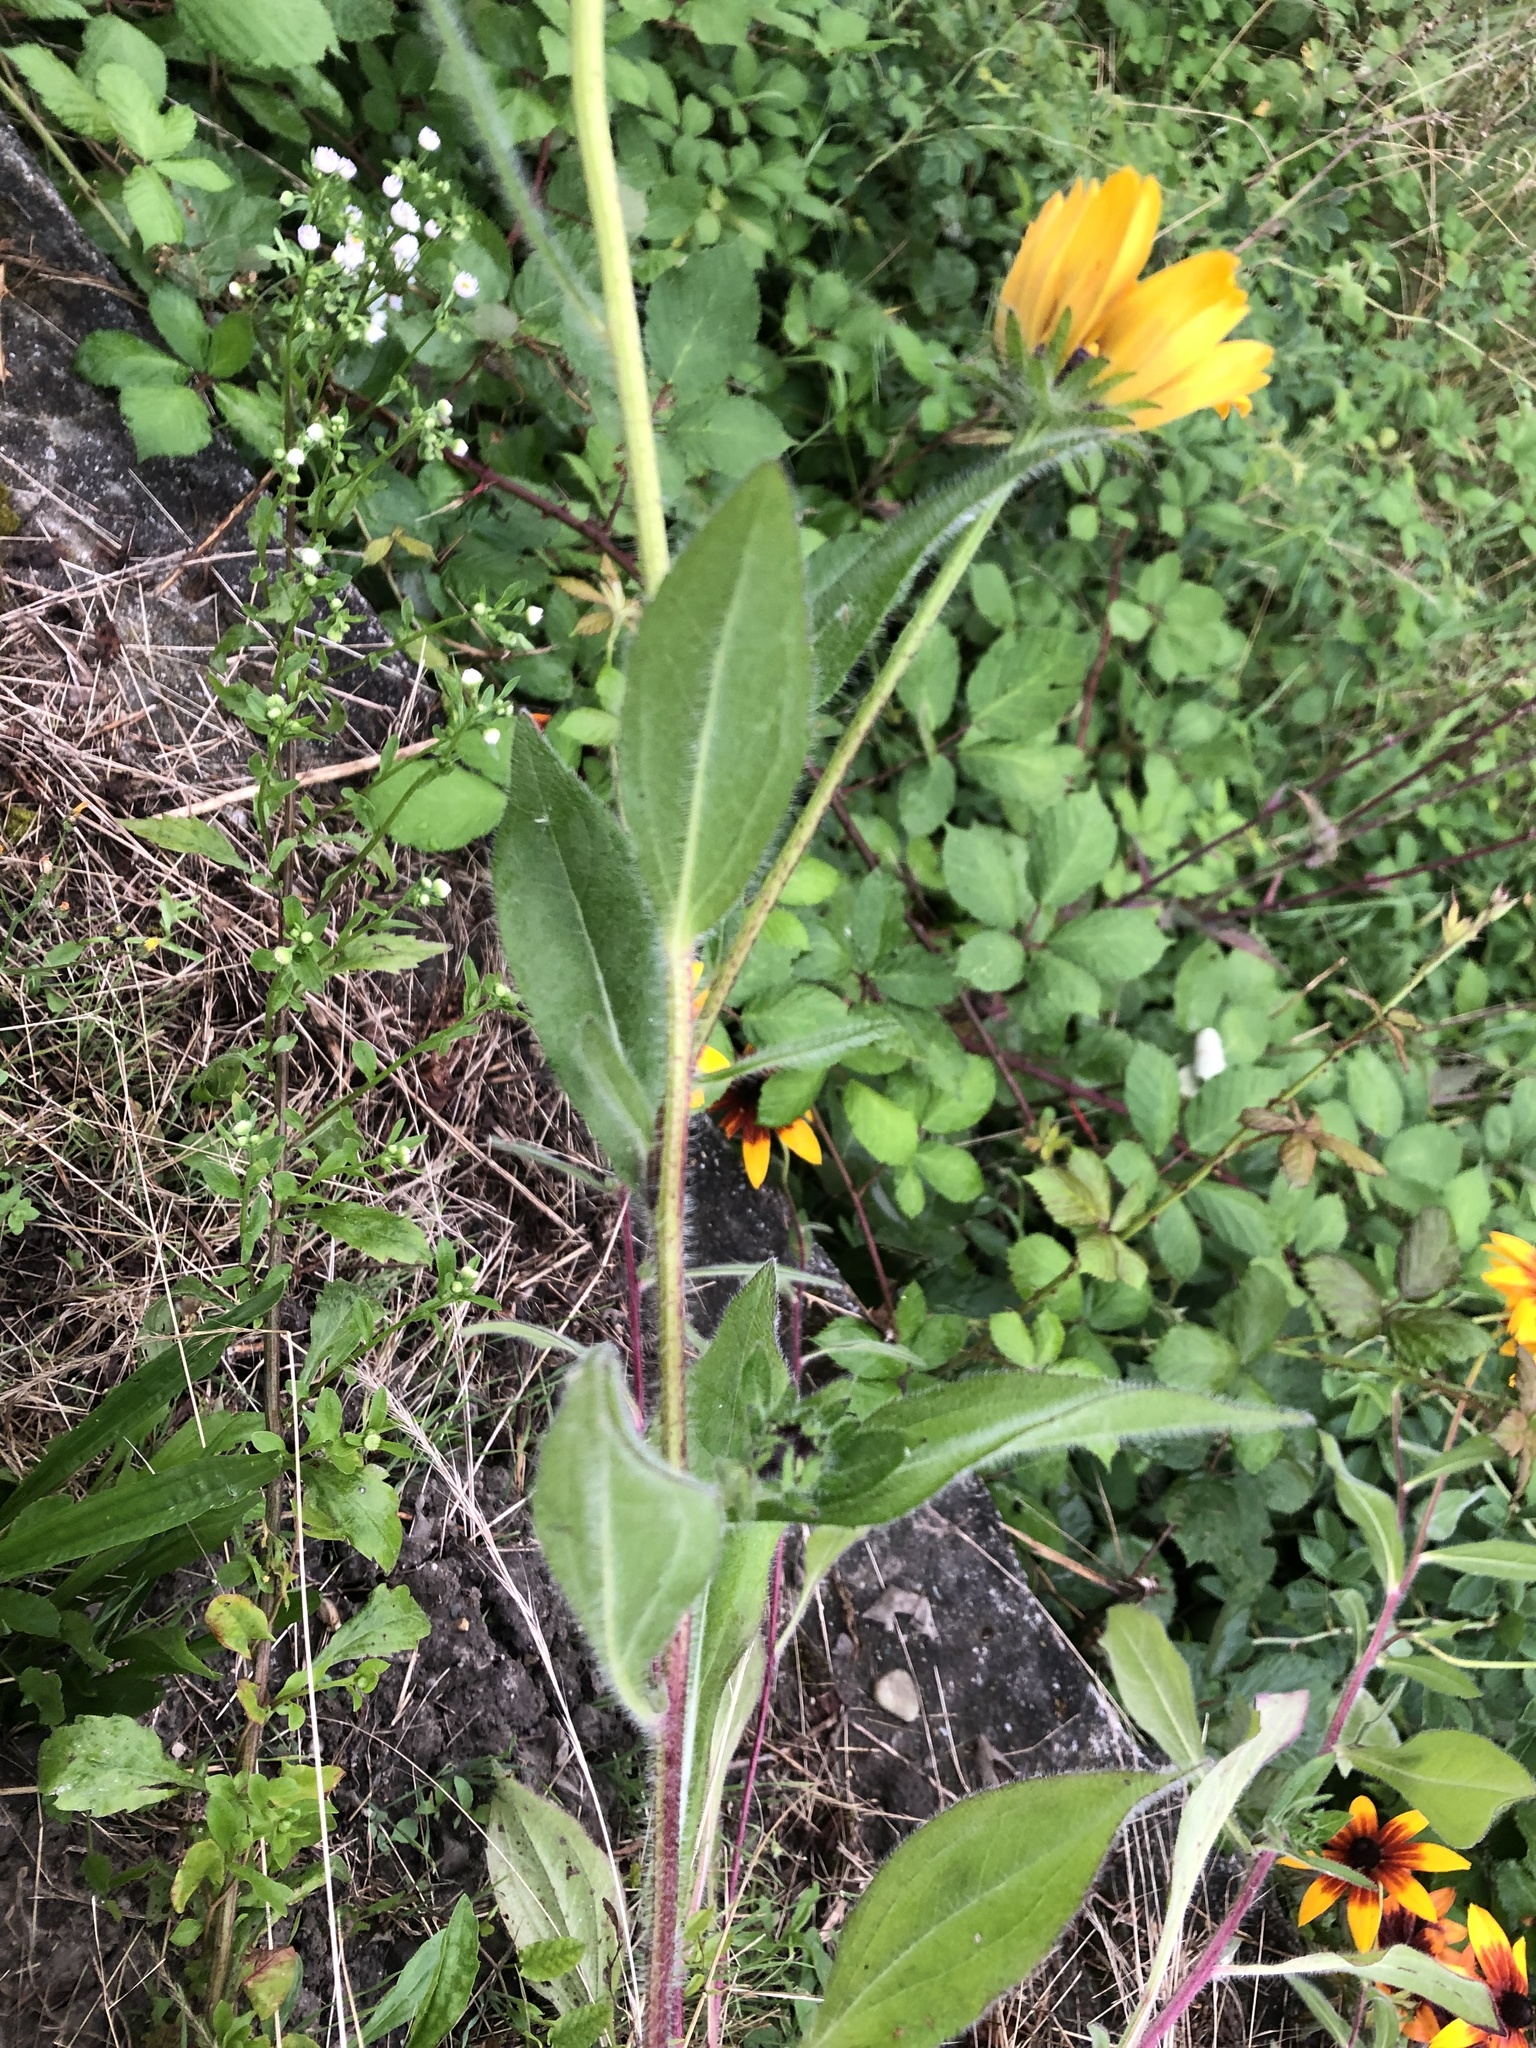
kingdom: Plantae
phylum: Tracheophyta
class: Magnoliopsida
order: Asterales
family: Asteraceae
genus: Rudbeckia
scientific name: Rudbeckia hirta
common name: Black-eyed-susan
